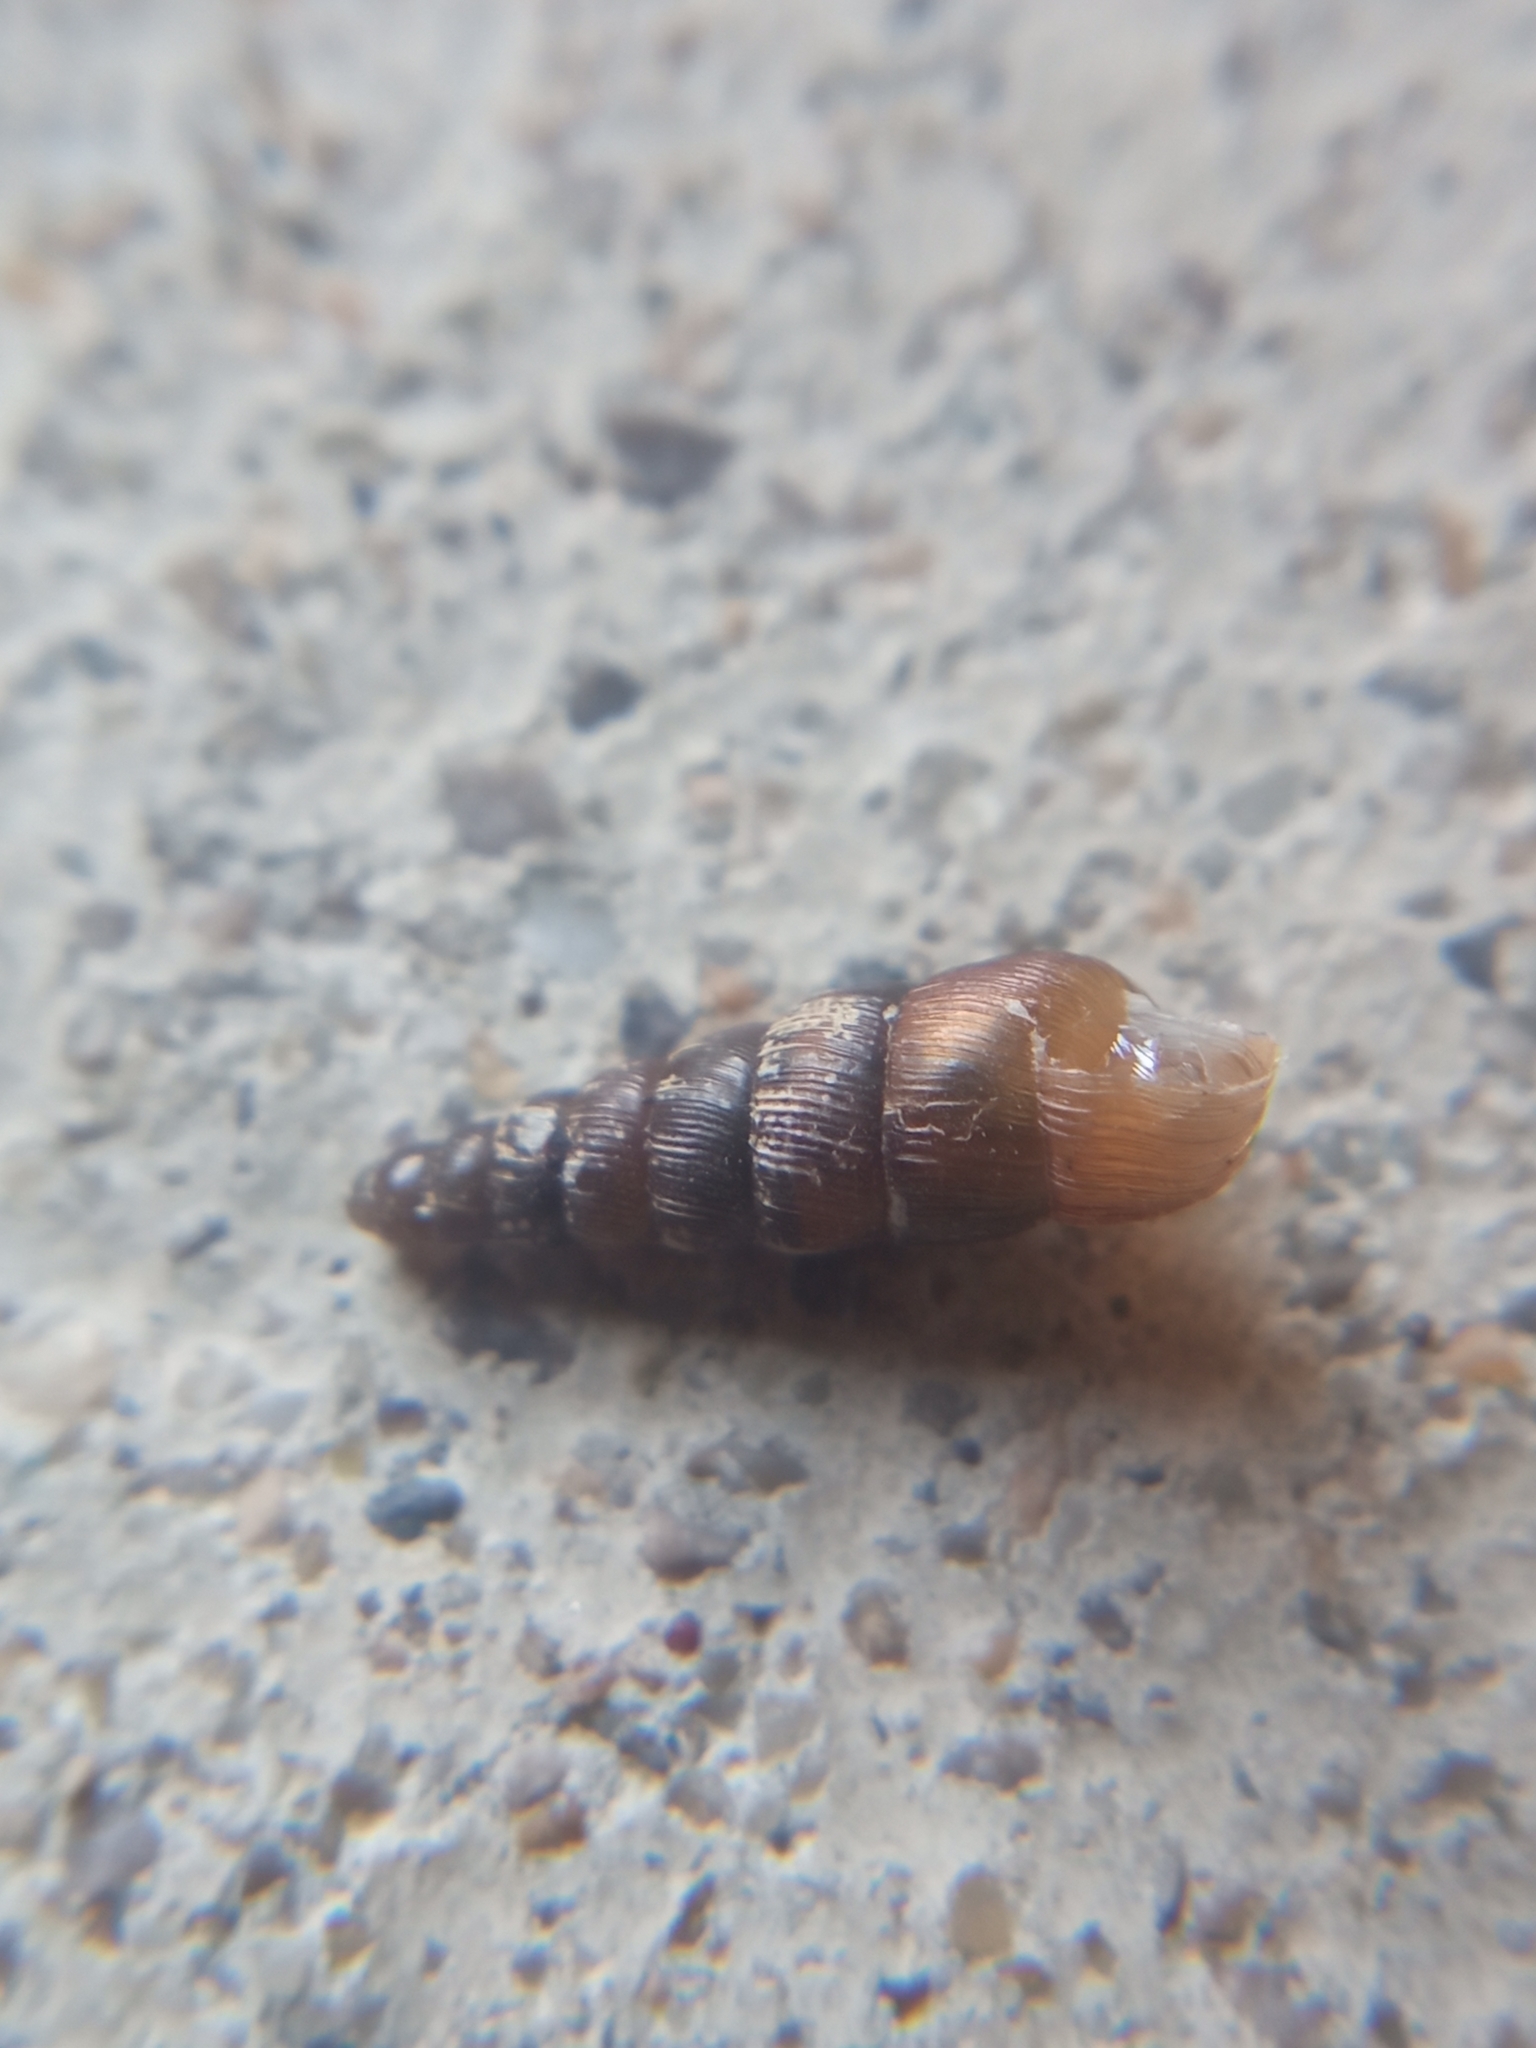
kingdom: Animalia
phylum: Mollusca
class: Gastropoda
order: Stylommatophora
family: Clausiliidae
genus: Balea
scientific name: Balea perversa
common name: Tree snail
